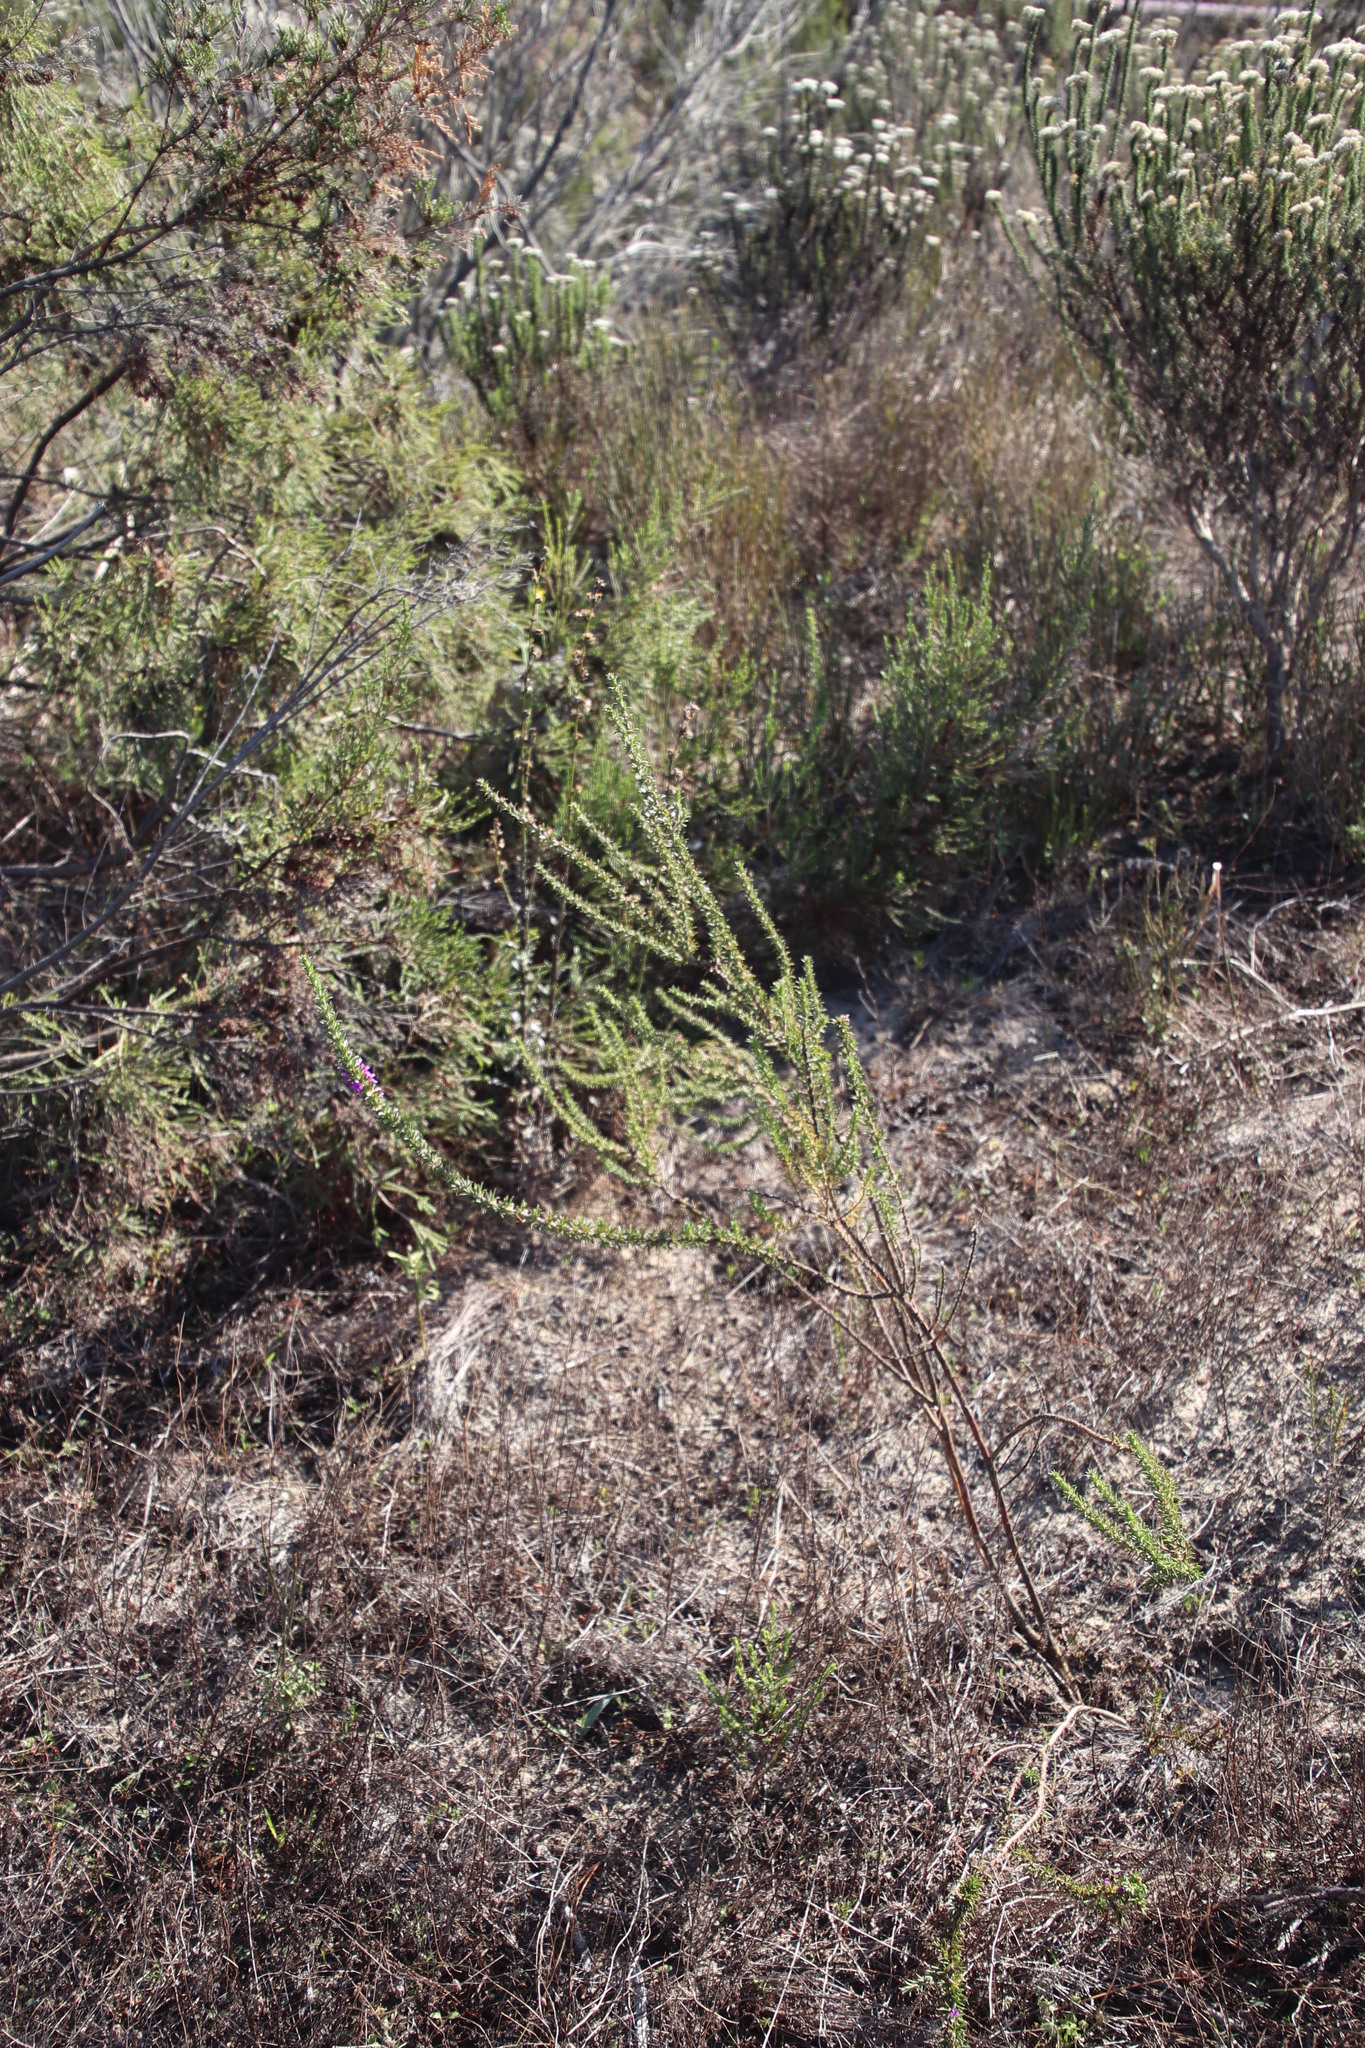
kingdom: Plantae
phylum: Tracheophyta
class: Magnoliopsida
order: Fabales
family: Polygalaceae
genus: Muraltia
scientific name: Muraltia heisteria
